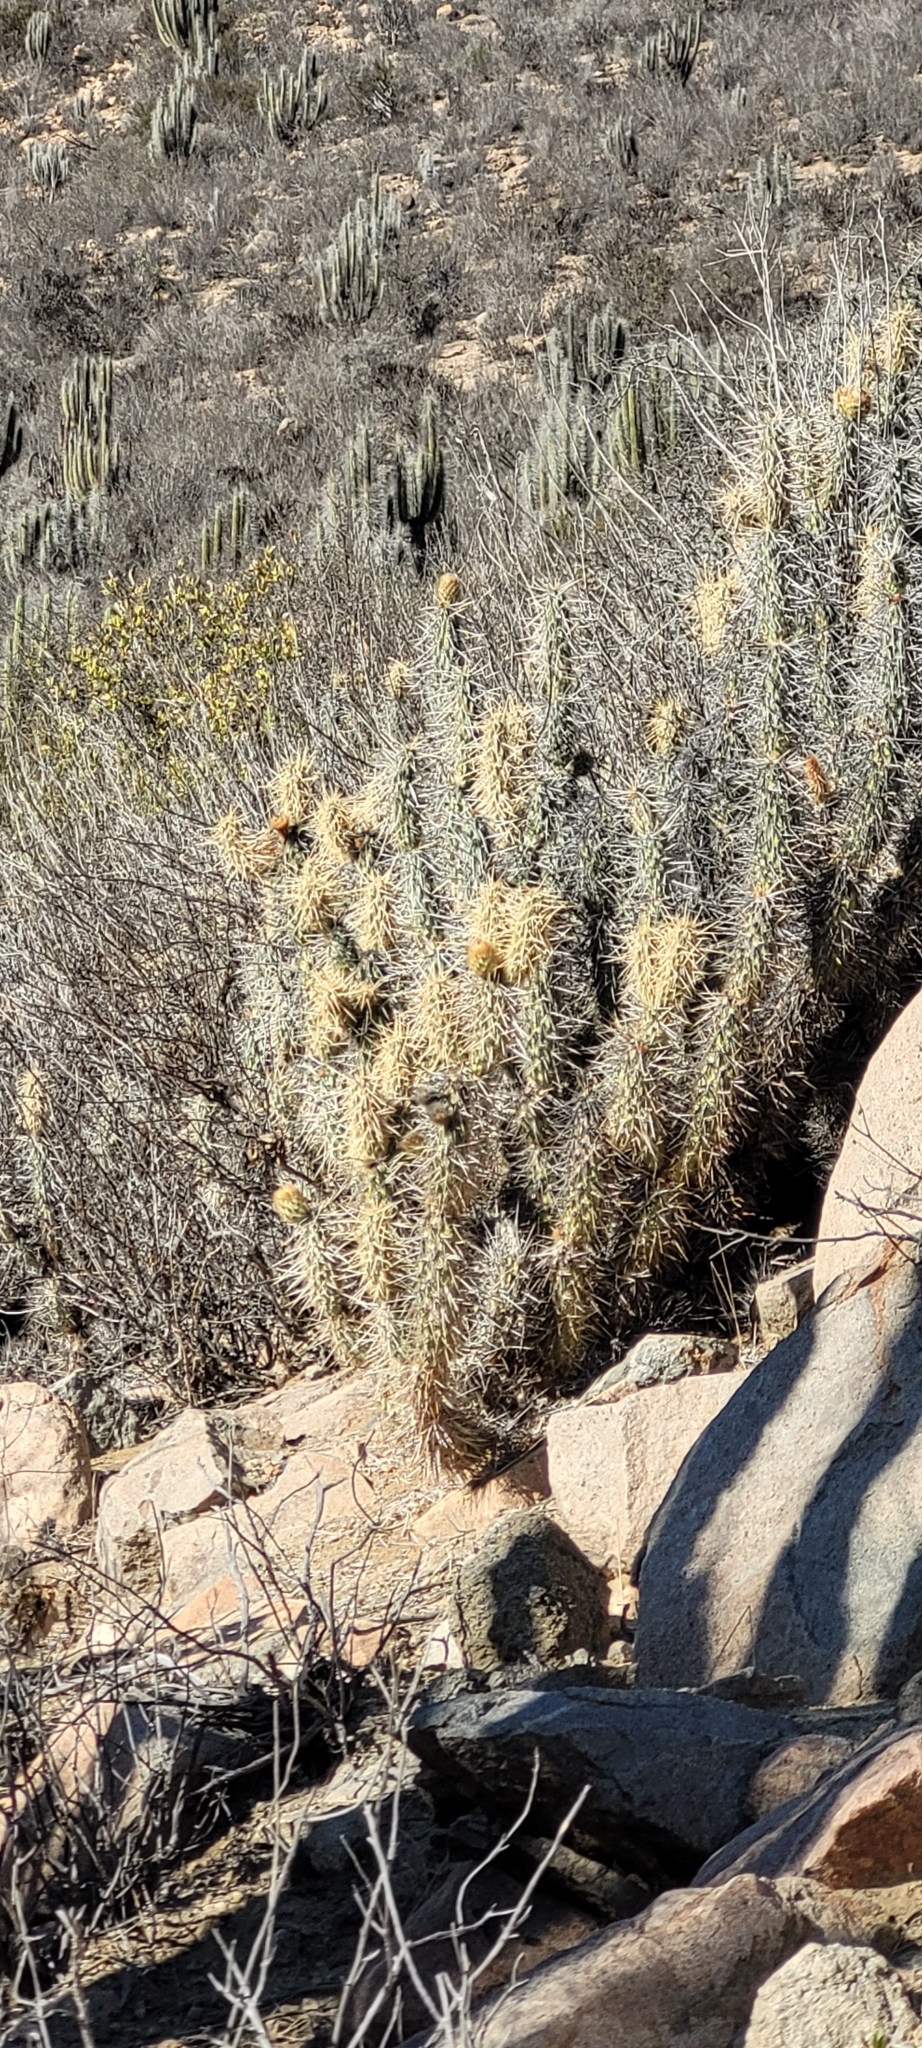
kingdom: Plantae
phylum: Tracheophyta
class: Magnoliopsida
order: Caryophyllales
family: Cactaceae
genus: Miqueliopuntia
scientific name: Miqueliopuntia miquelii
